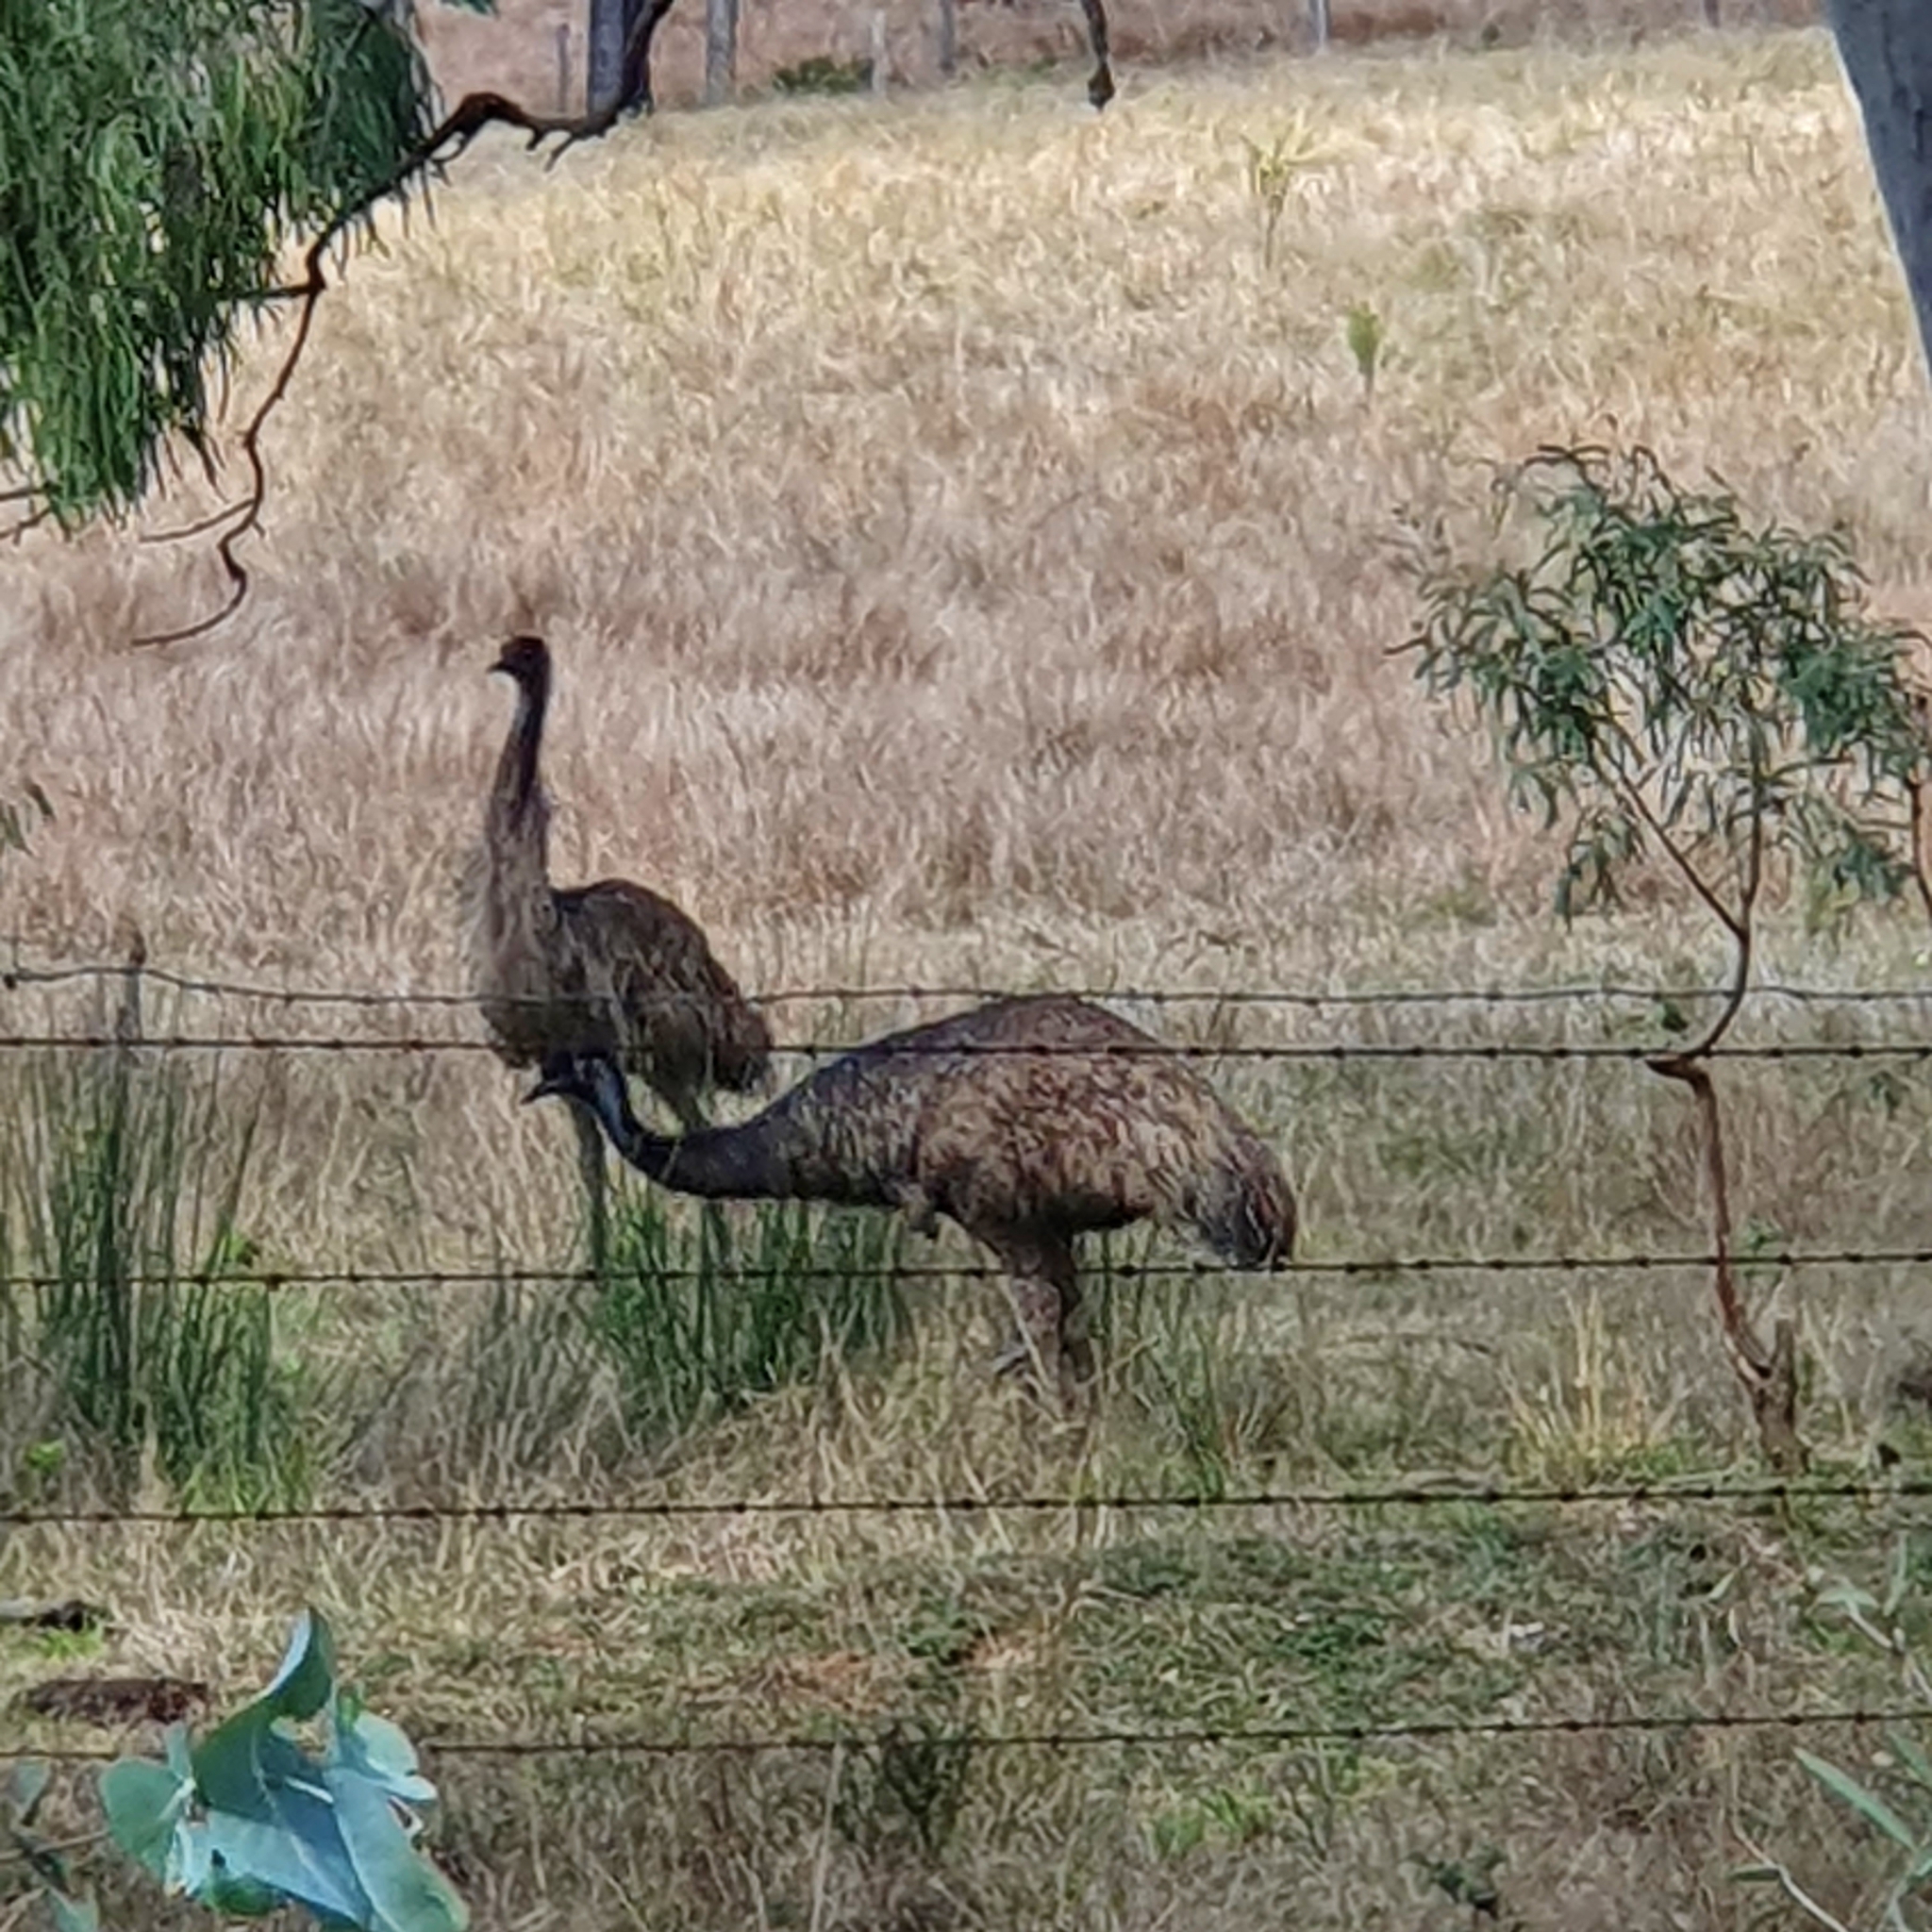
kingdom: Animalia
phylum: Chordata
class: Aves
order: Casuariiformes
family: Dromaiidae
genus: Dromaius
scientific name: Dromaius novaehollandiae
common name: Emu
